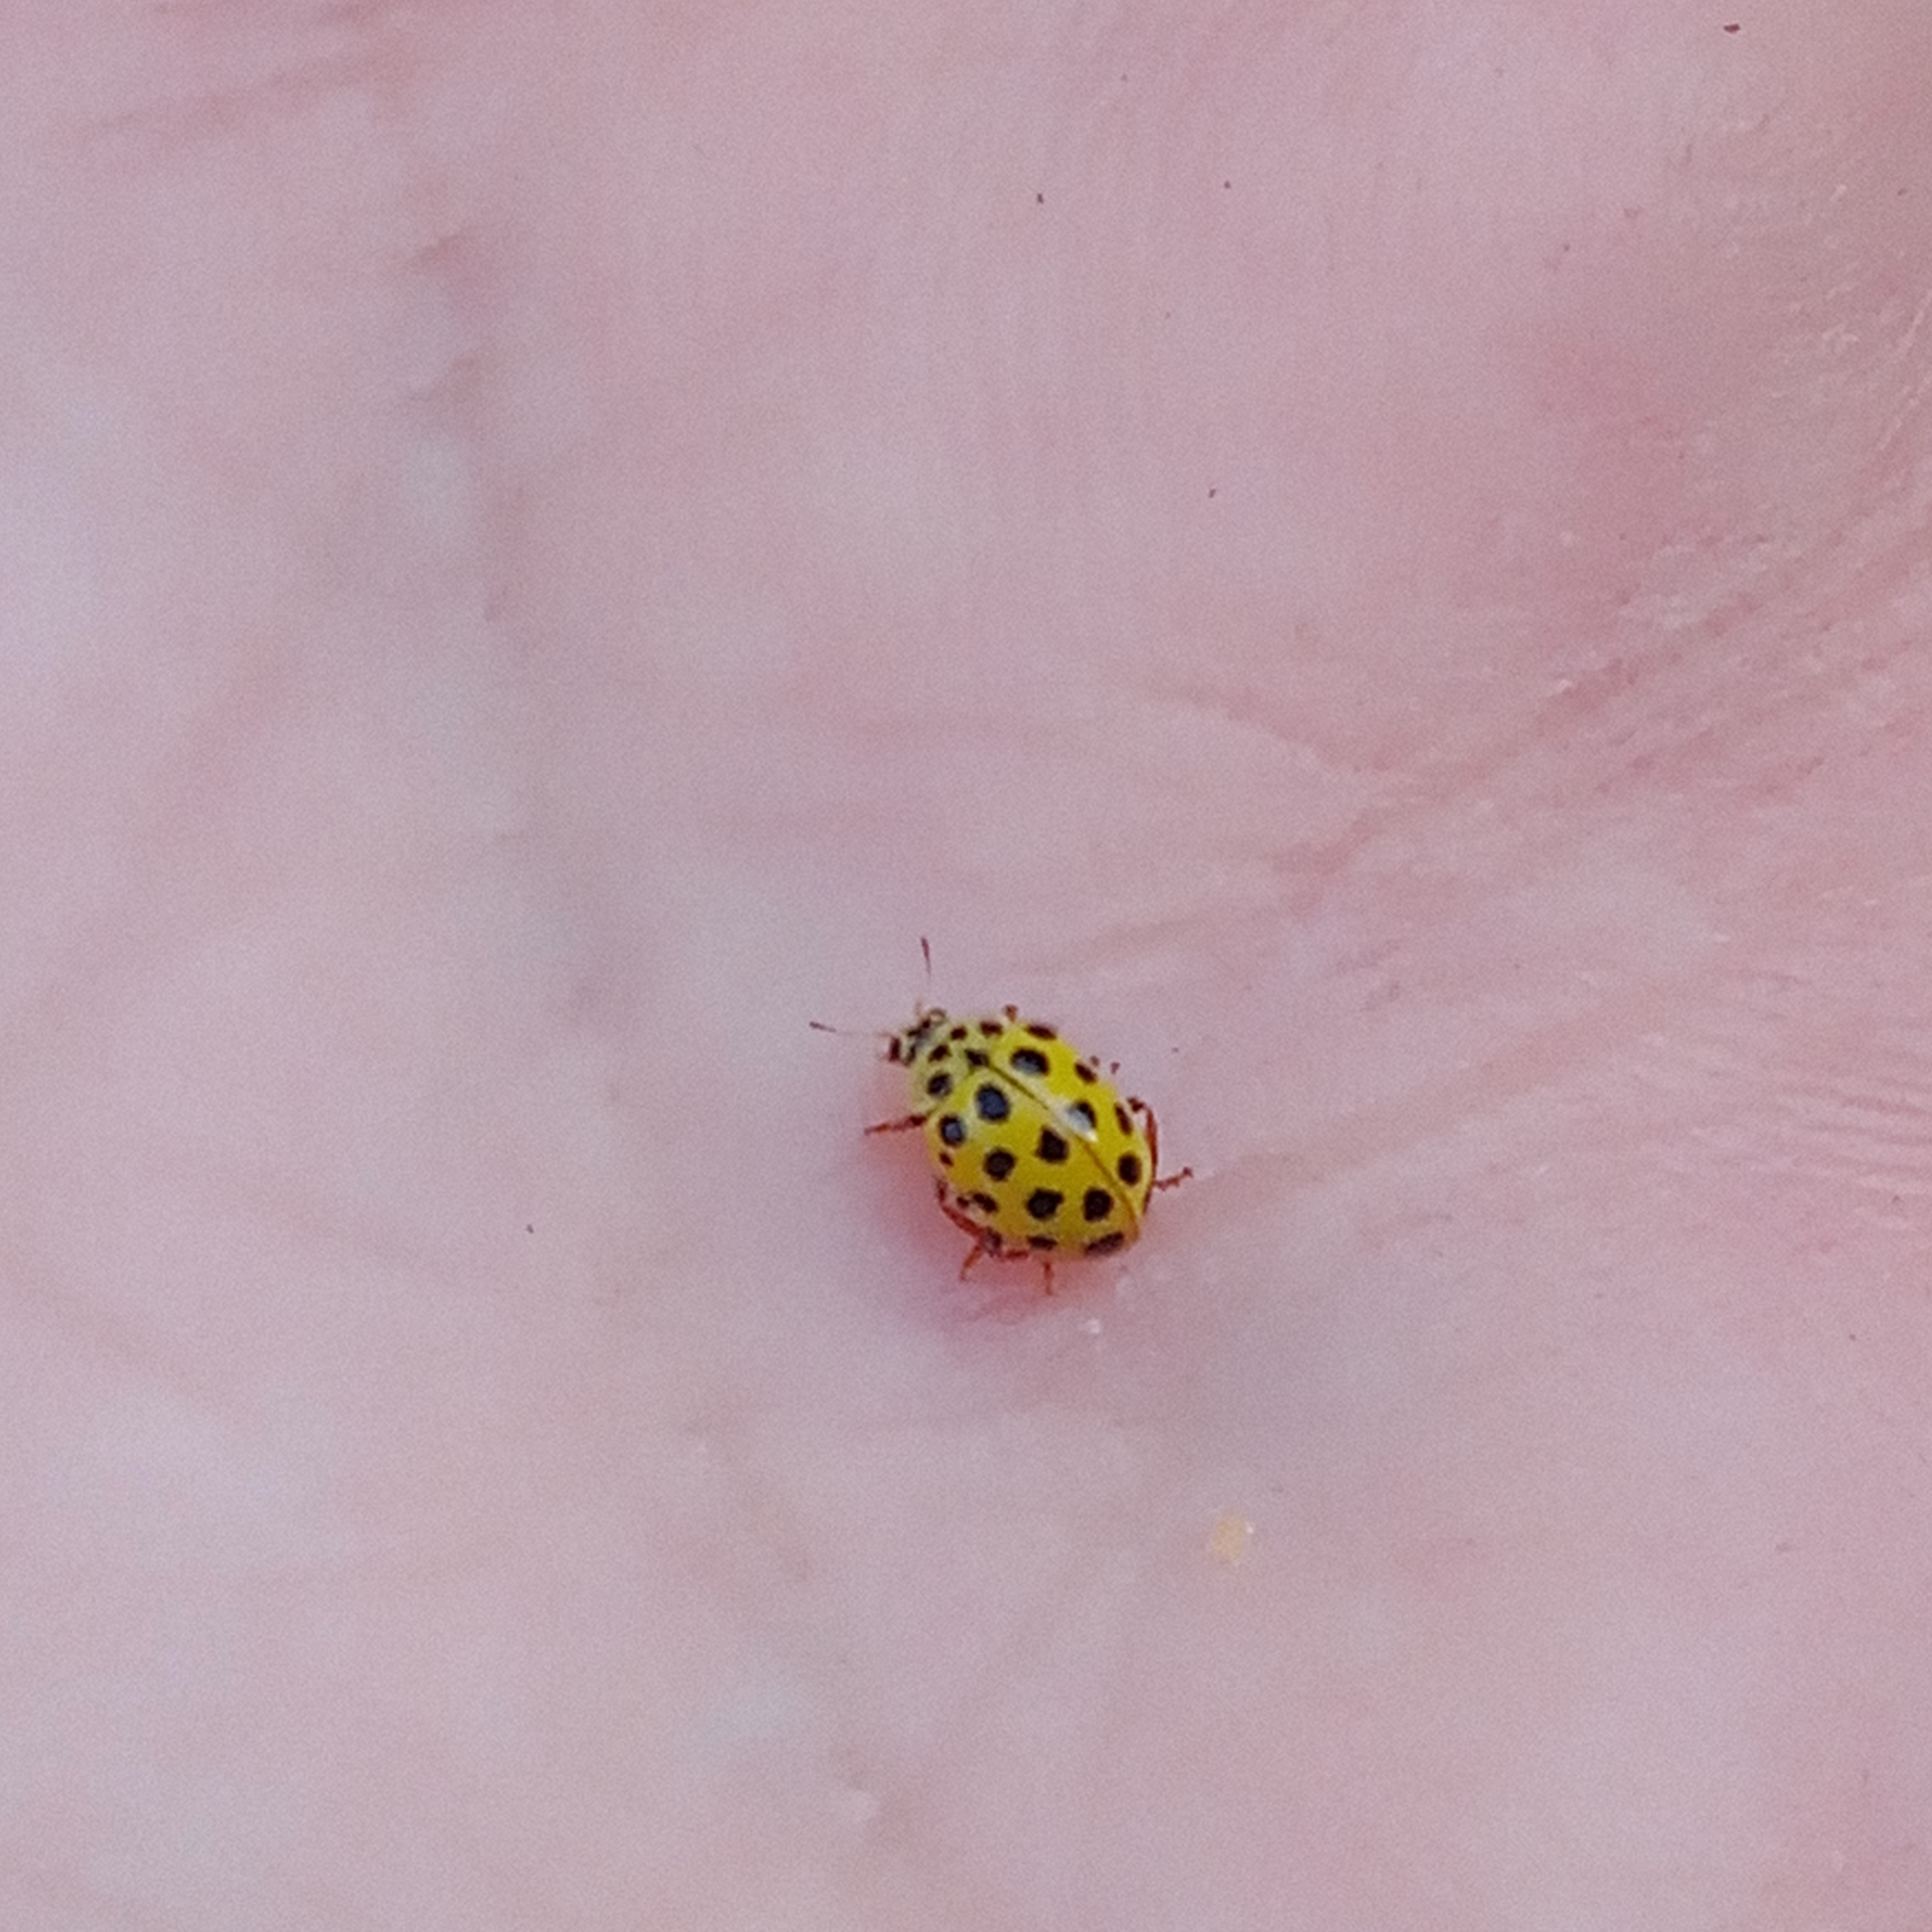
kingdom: Animalia
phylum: Arthropoda
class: Insecta
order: Coleoptera
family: Coccinellidae
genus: Psyllobora
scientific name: Psyllobora vigintiduopunctata
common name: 22-spot ladybird
